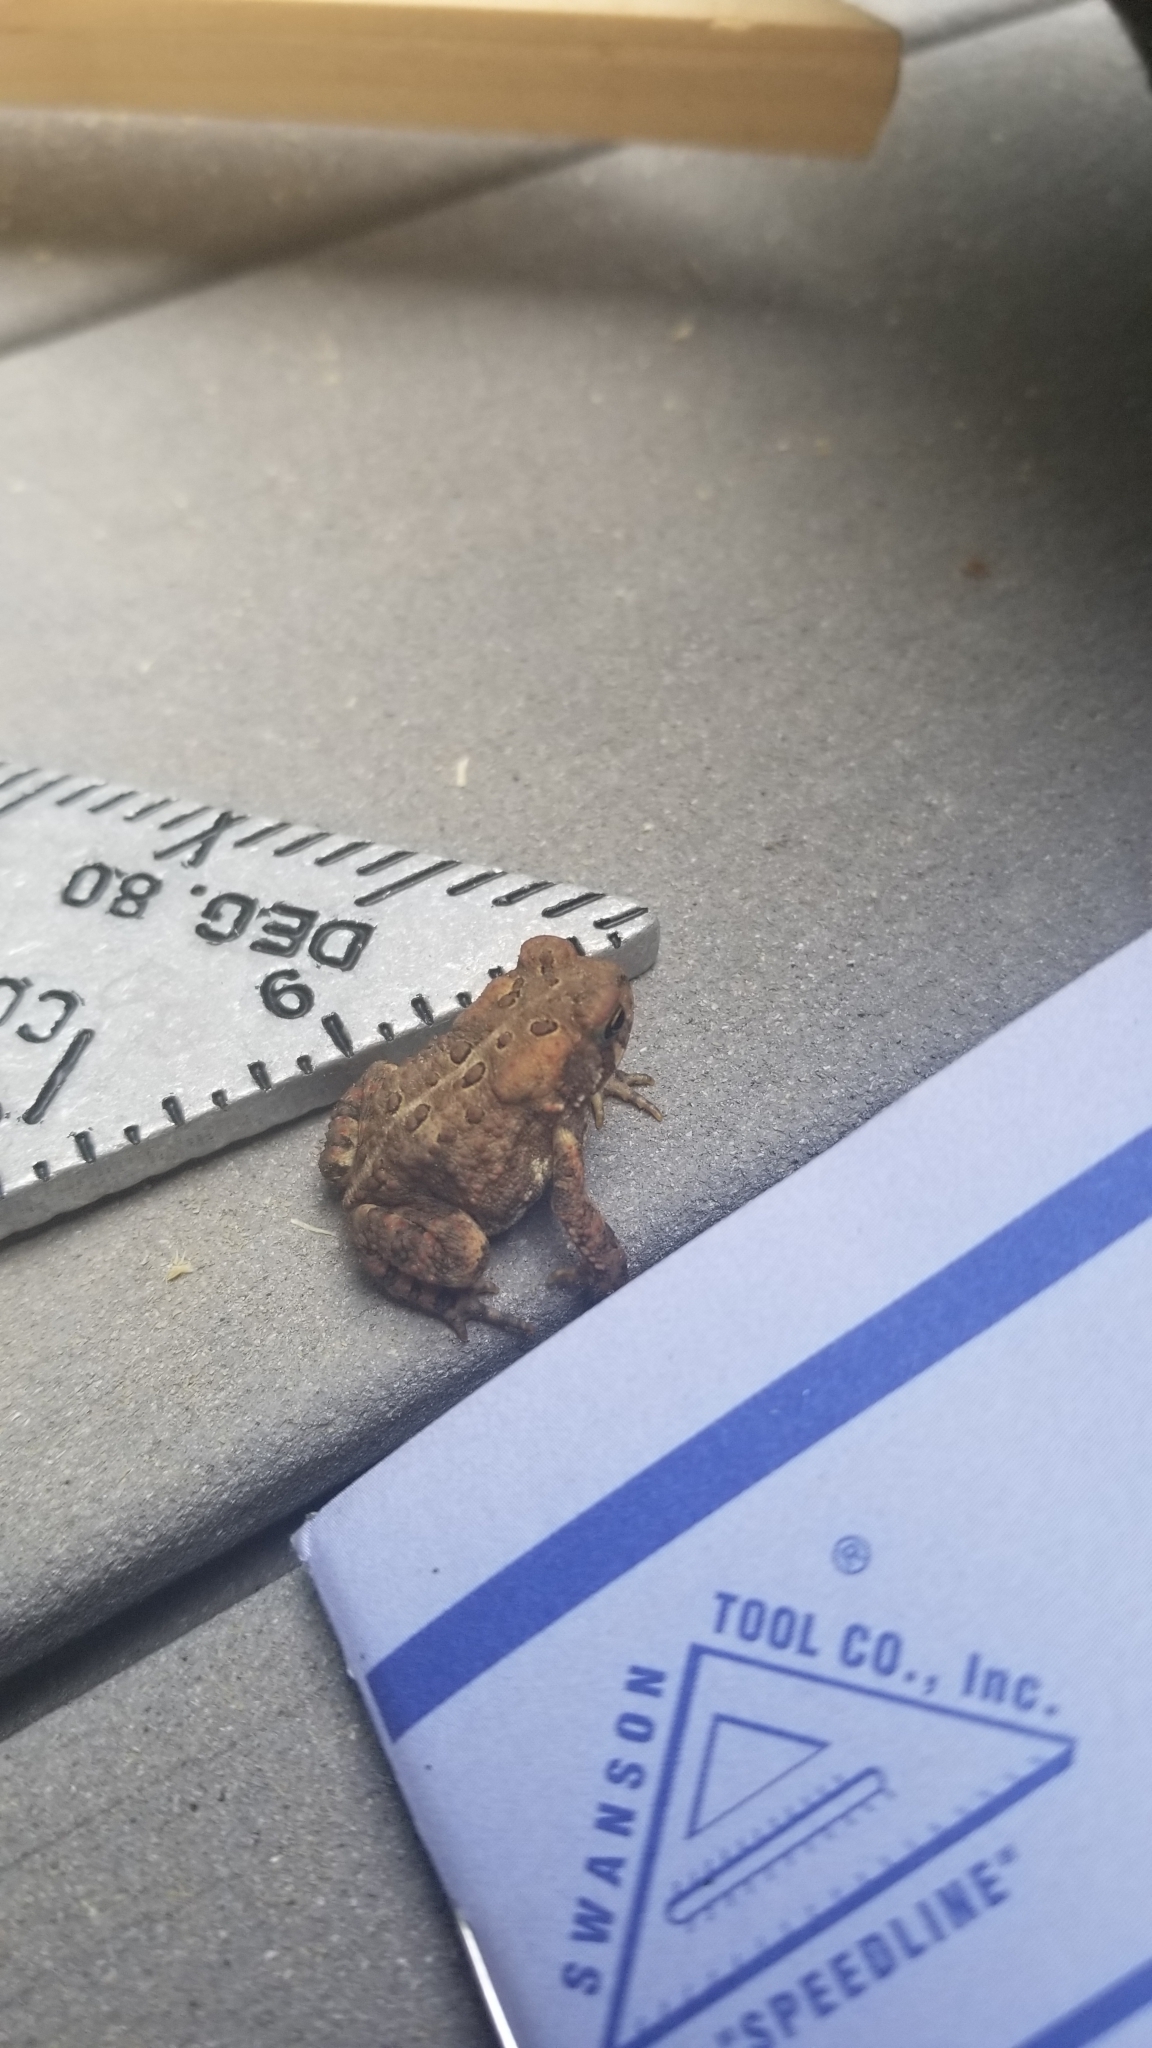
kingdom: Animalia
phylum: Chordata
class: Amphibia
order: Anura
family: Bufonidae
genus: Anaxyrus
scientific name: Anaxyrus americanus
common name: American toad
